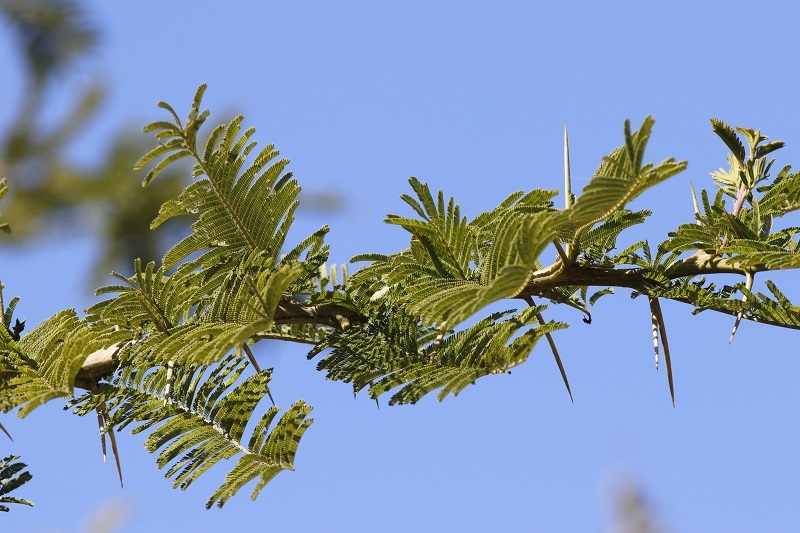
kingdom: Plantae
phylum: Tracheophyta
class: Magnoliopsida
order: Fabales
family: Fabaceae
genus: Vachellia
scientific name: Vachellia sieberiana
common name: Flat-topped thorn
